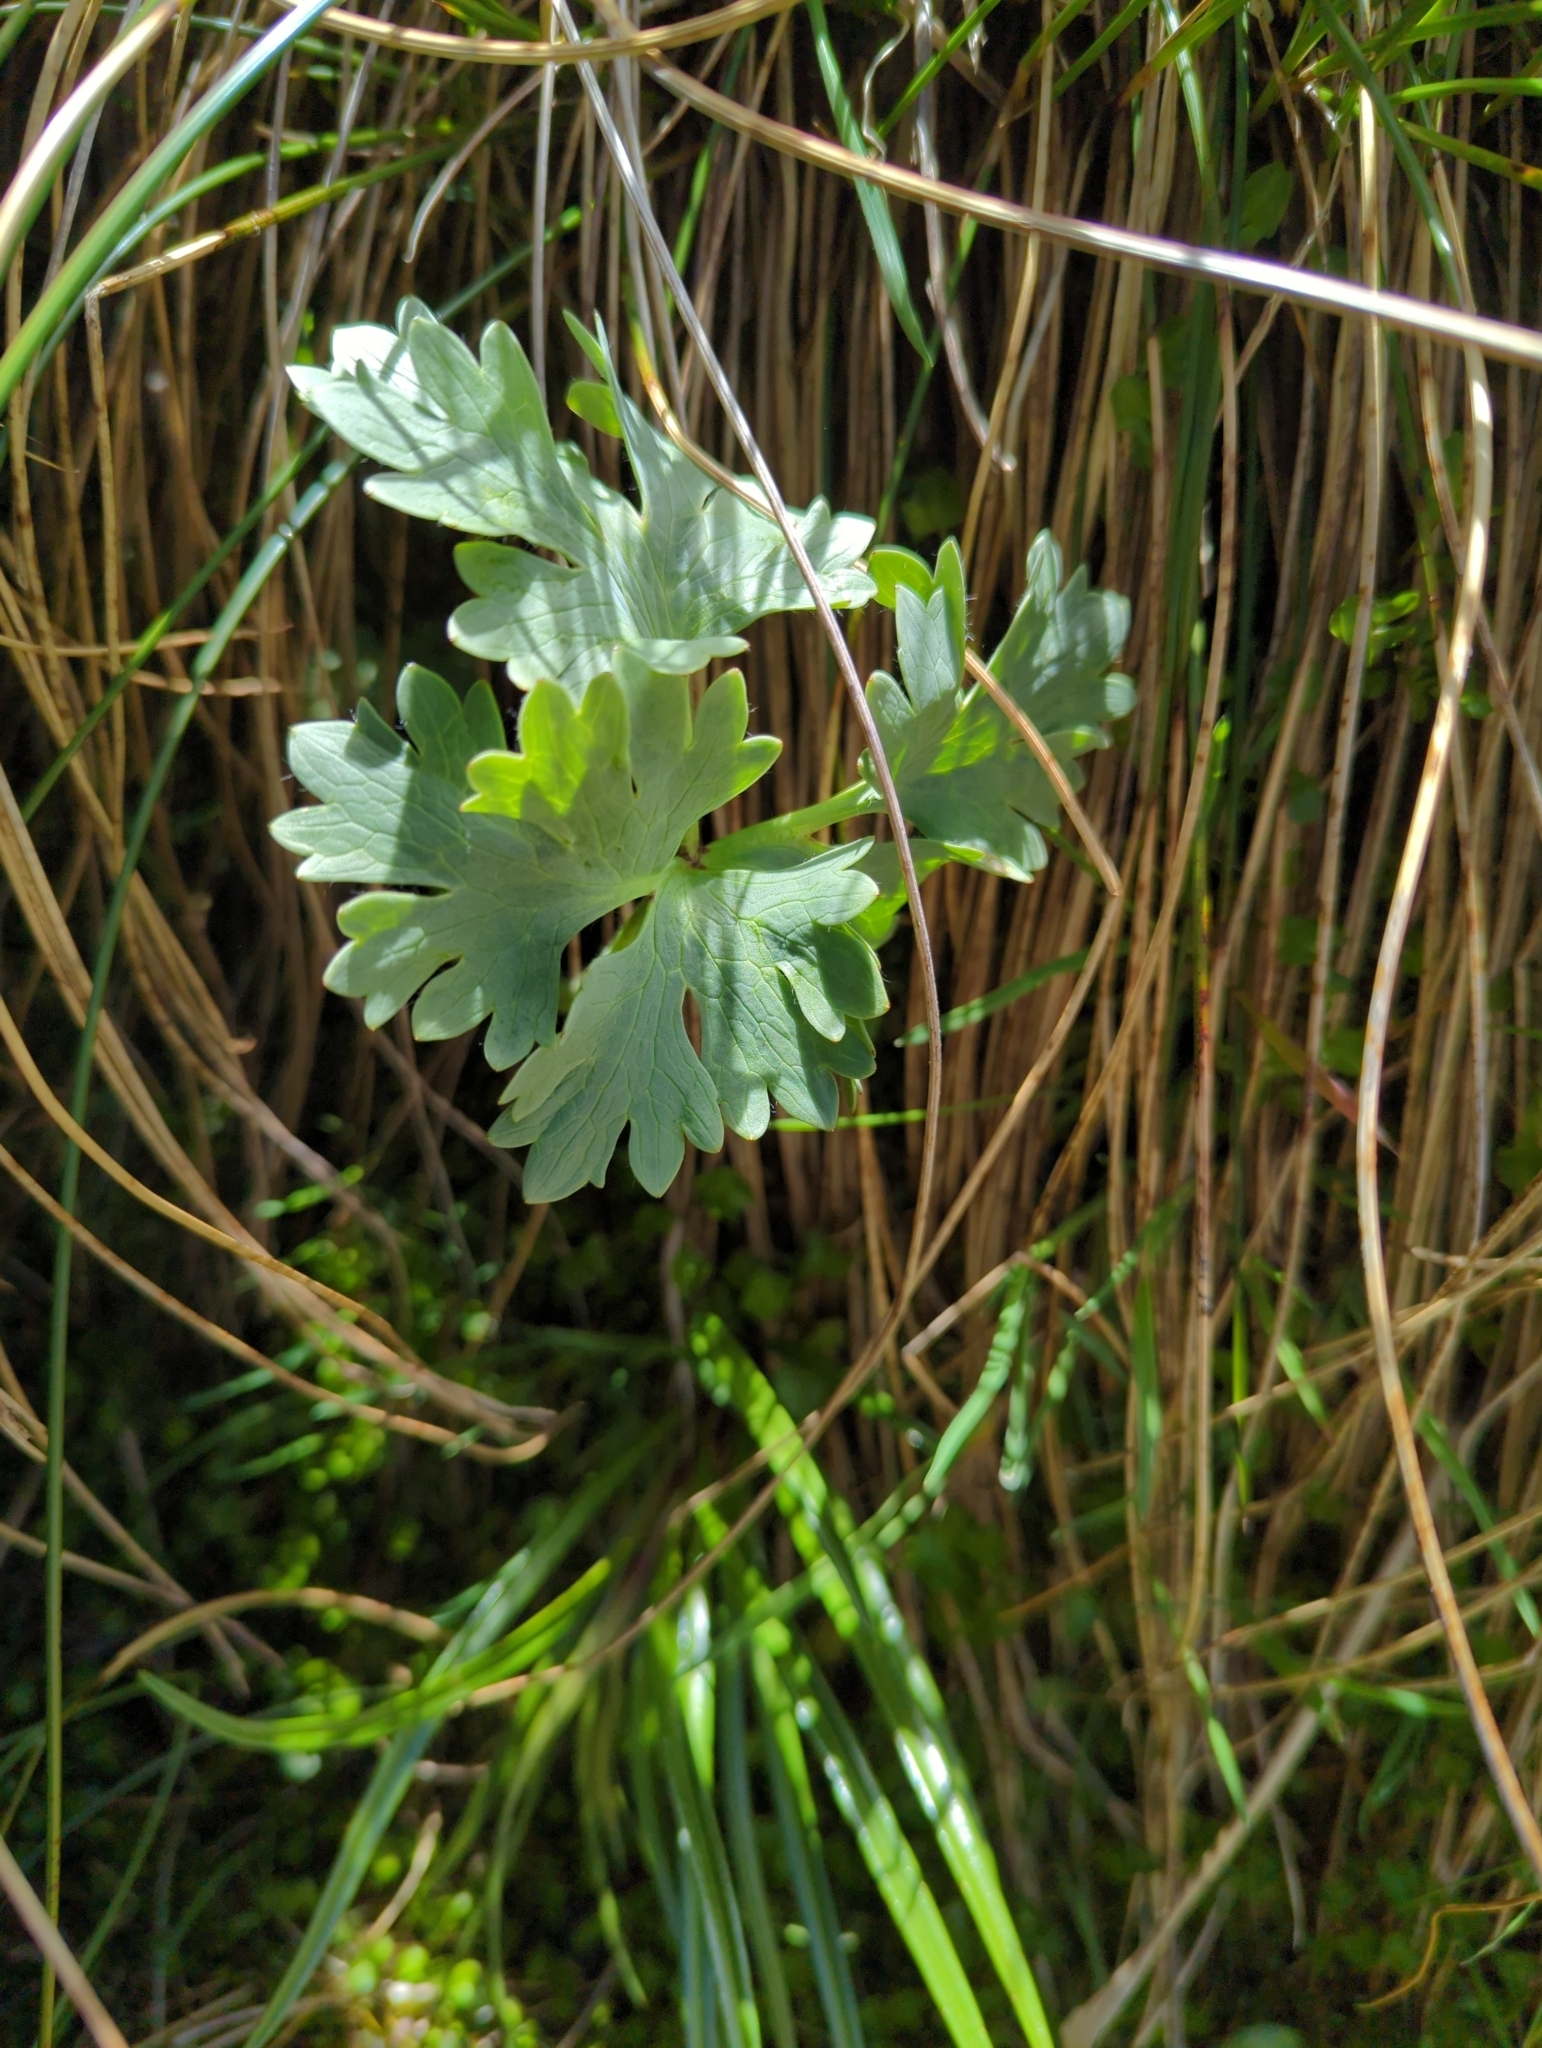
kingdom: Plantae
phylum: Tracheophyta
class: Magnoliopsida
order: Ranunculales
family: Ranunculaceae
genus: Ranunculus
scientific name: Ranunculus buchananii
